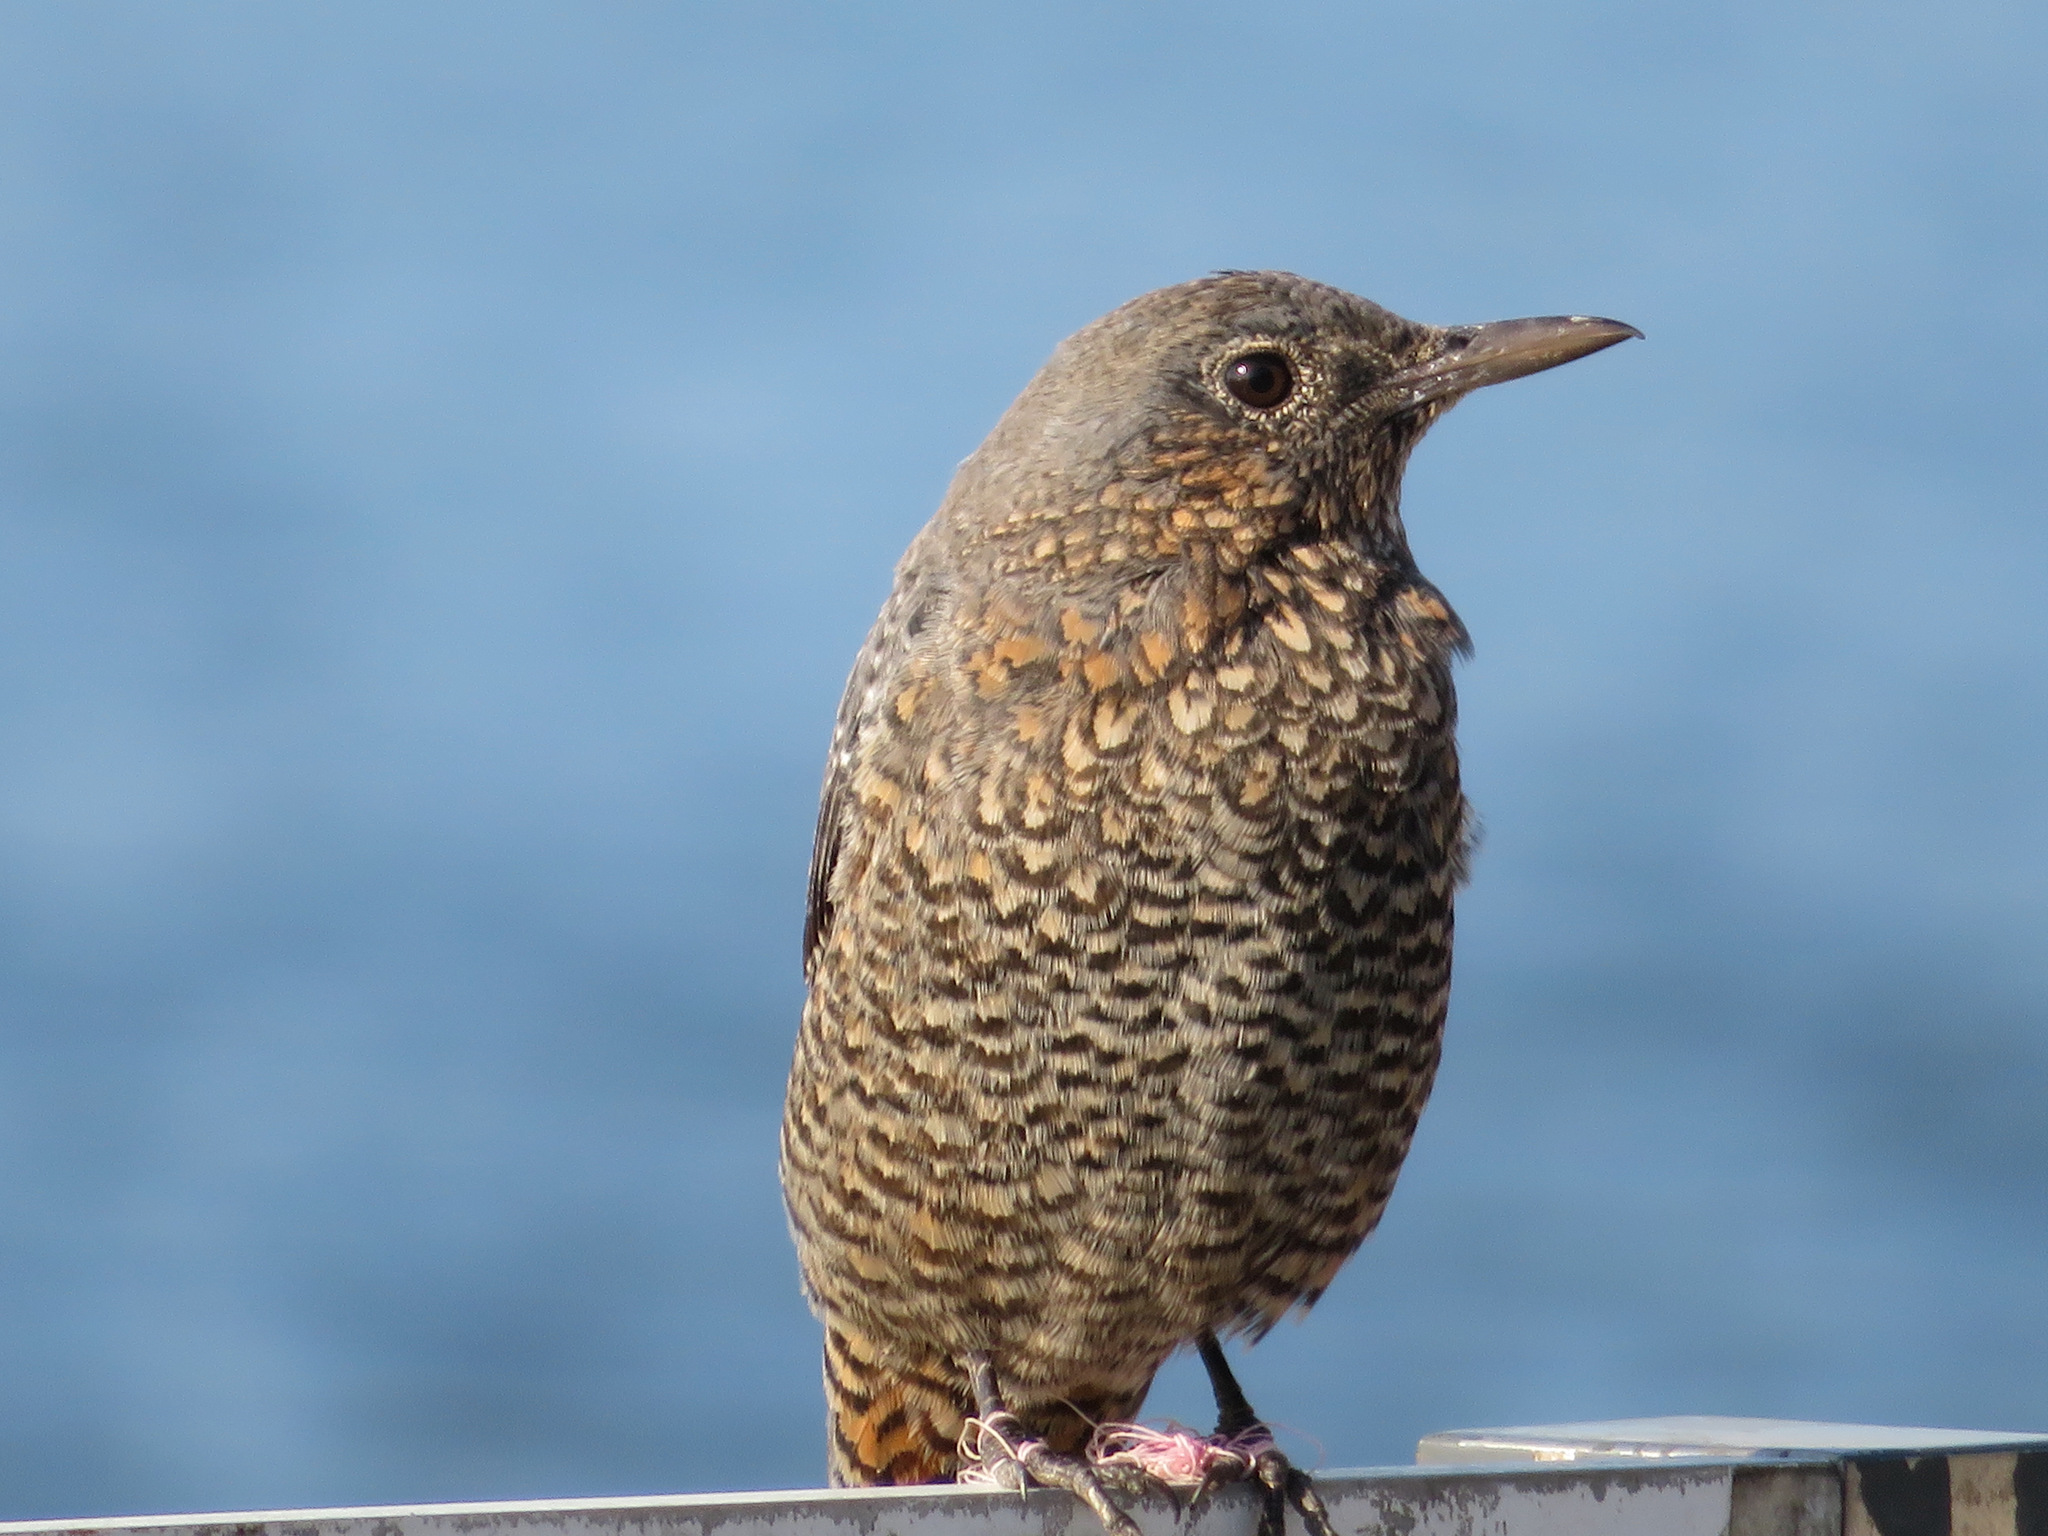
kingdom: Animalia
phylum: Chordata
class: Aves
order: Passeriformes
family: Muscicapidae
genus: Monticola
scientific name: Monticola solitarius
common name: Blue rock thrush
